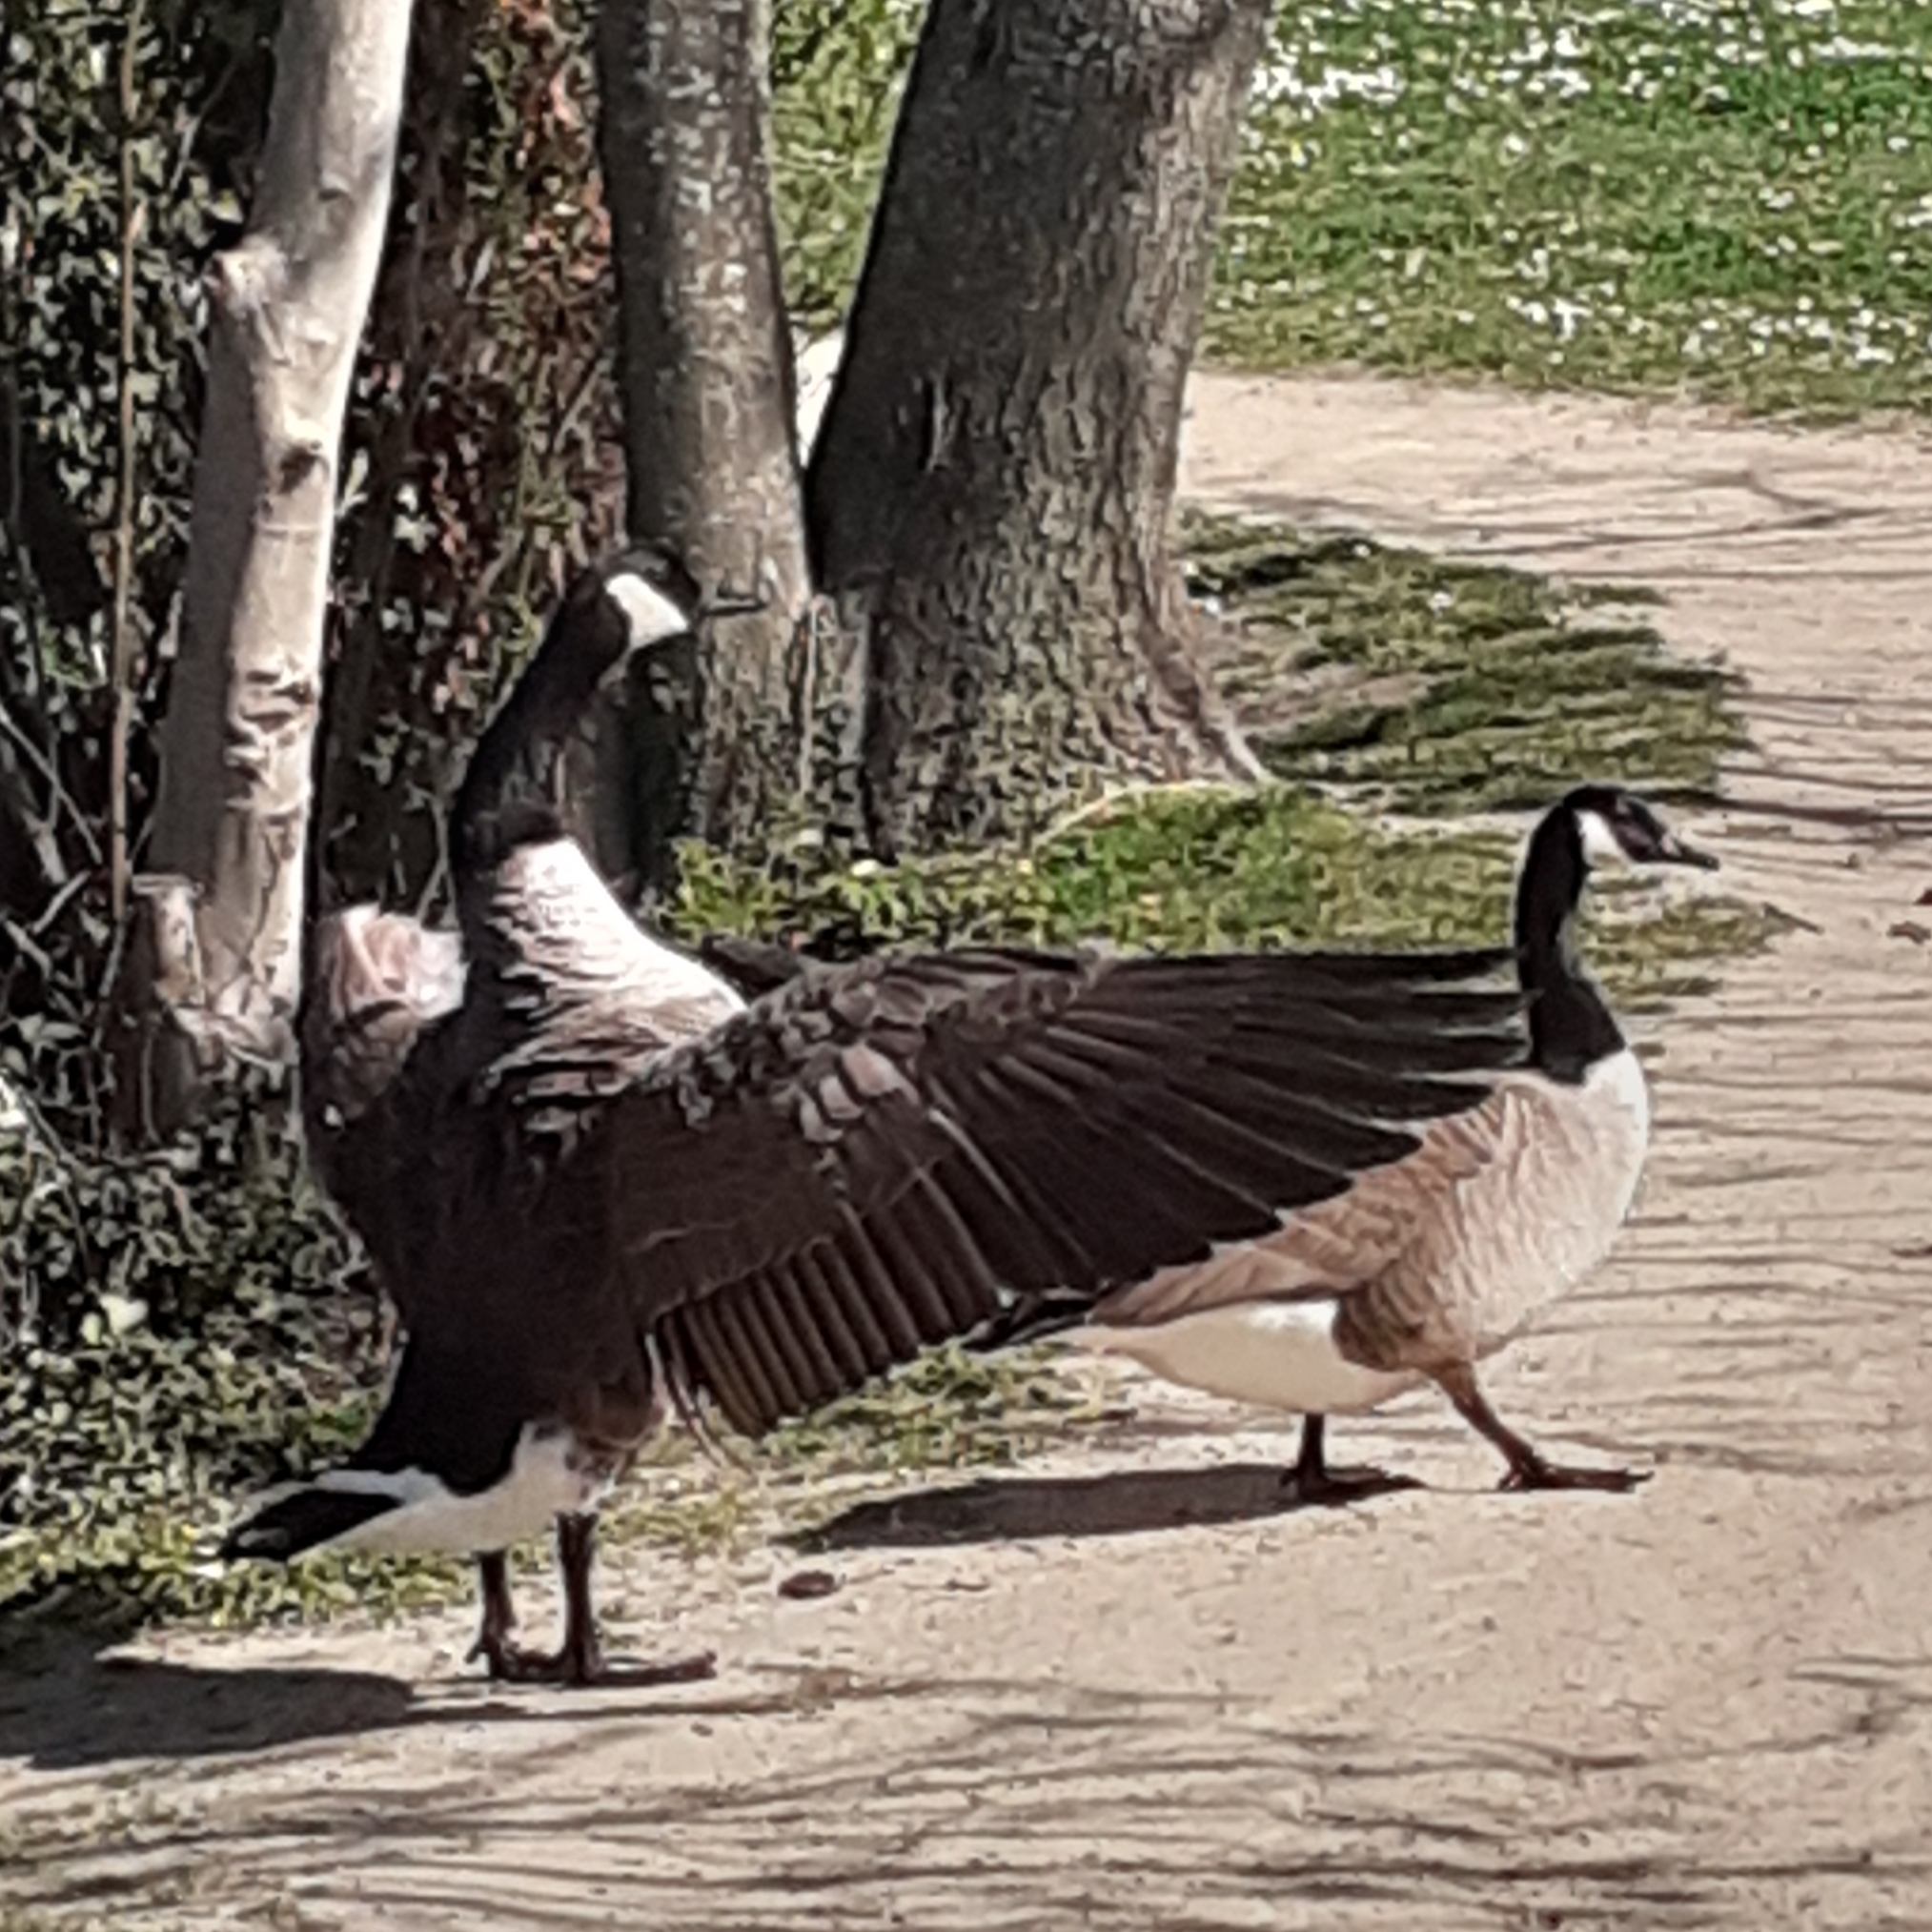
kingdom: Animalia
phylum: Chordata
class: Aves
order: Anseriformes
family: Anatidae
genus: Branta
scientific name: Branta canadensis
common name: Canada goose
